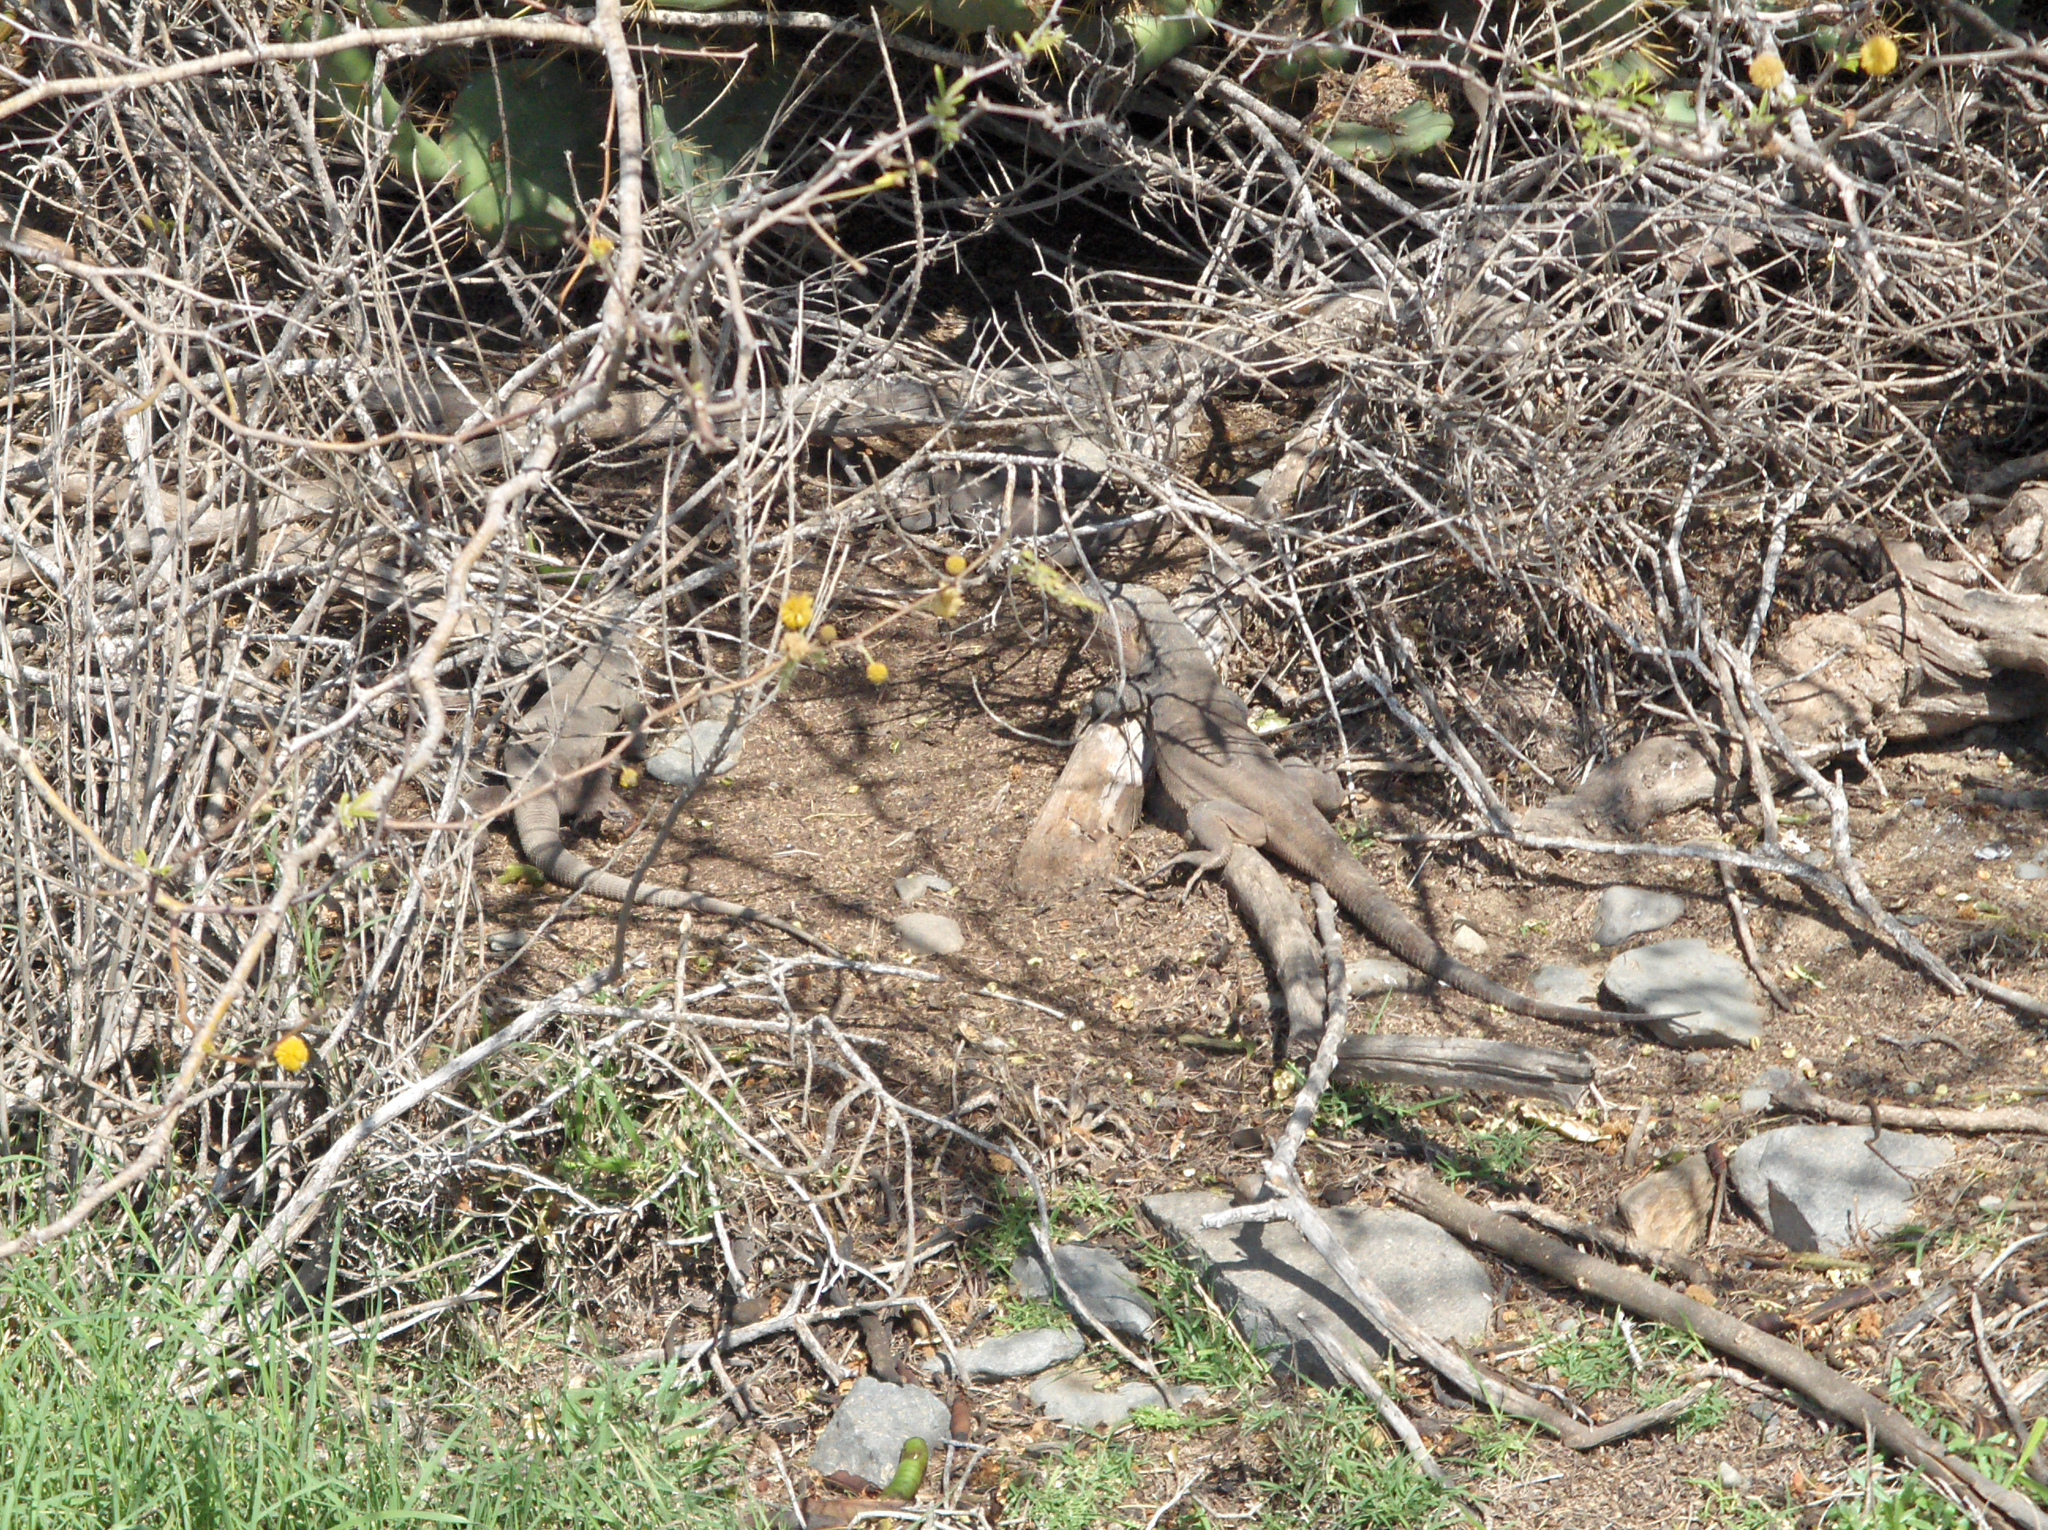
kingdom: Animalia
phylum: Chordata
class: Squamata
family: Lacertidae
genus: Gallotia
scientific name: Gallotia stehlini
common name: Gran canaria giant lizard
